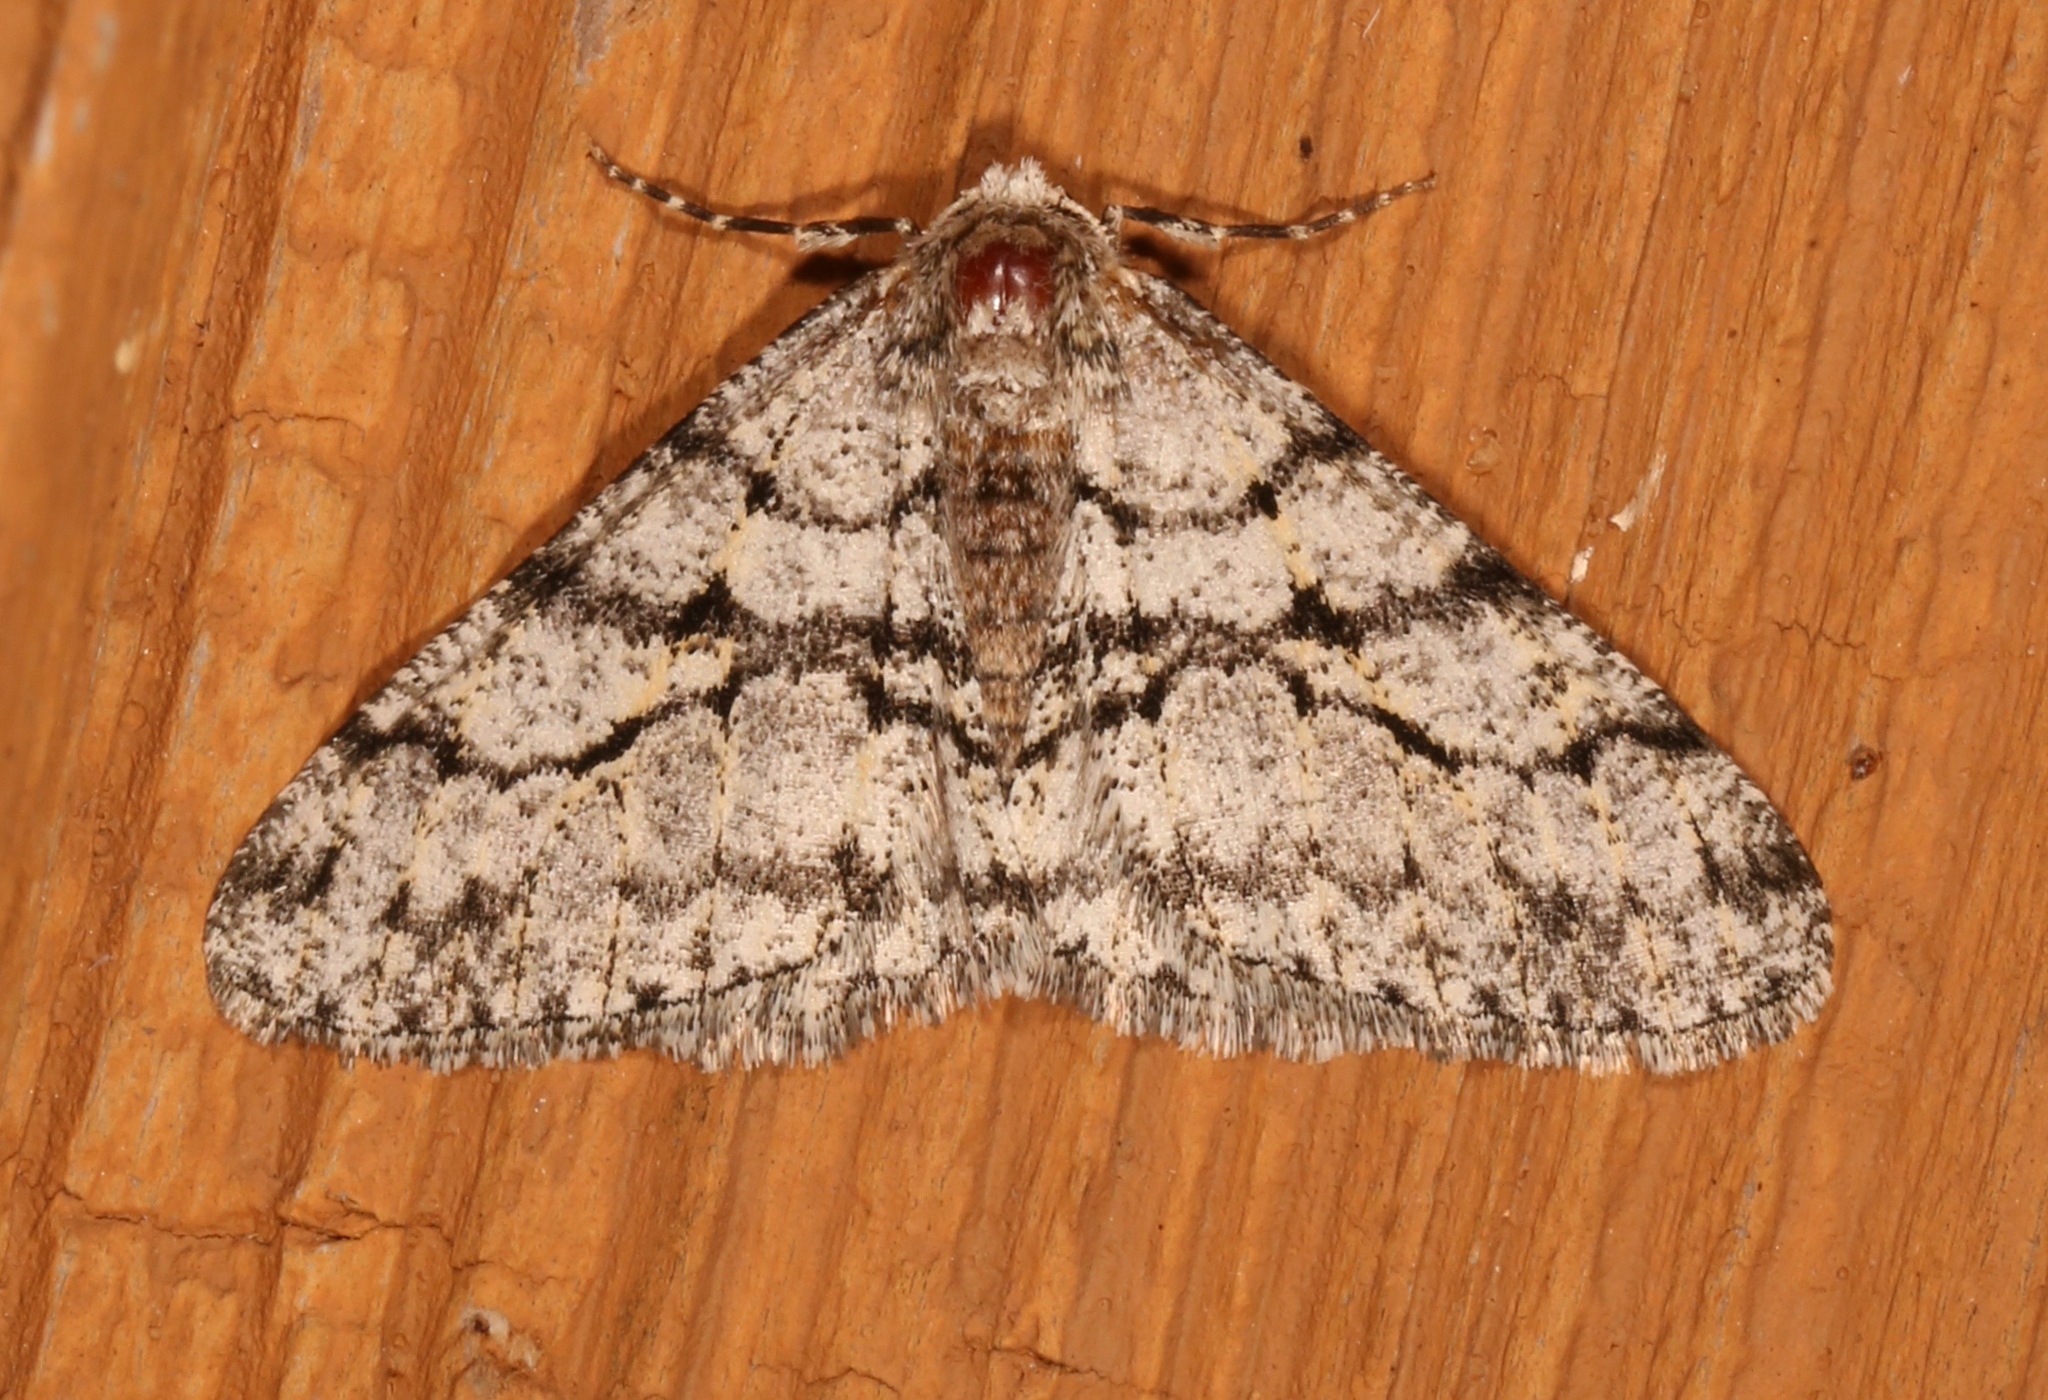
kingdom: Animalia
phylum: Arthropoda
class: Insecta
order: Lepidoptera
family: Geometridae
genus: Phigalia
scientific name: Phigalia titea
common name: Spiny looper
